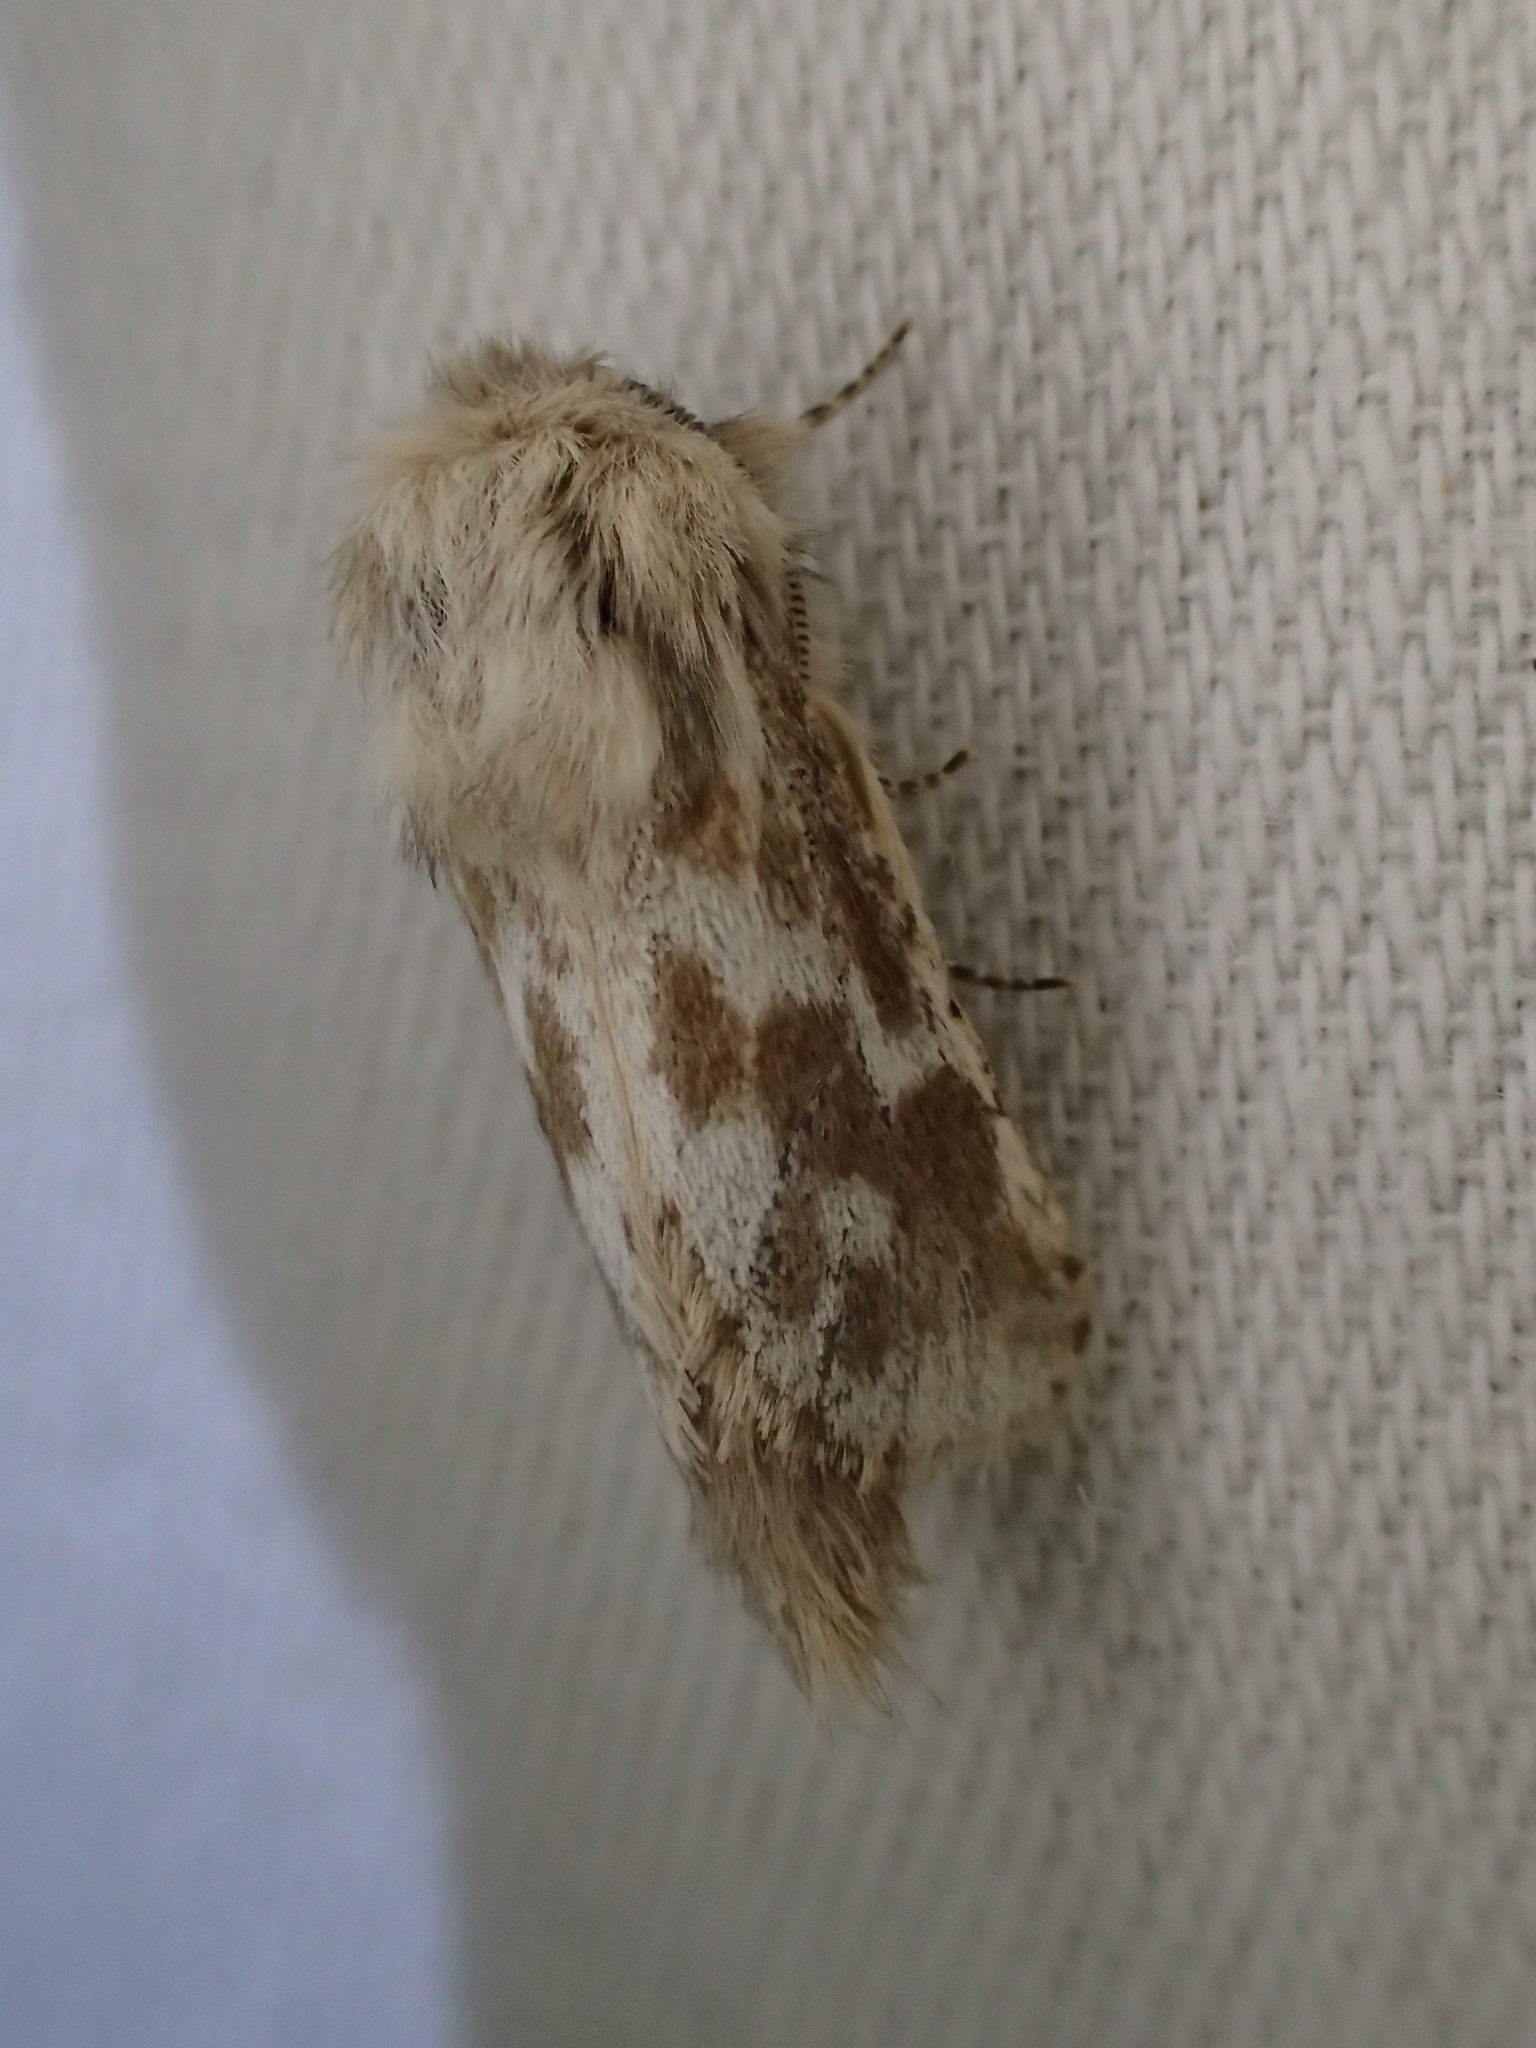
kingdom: Animalia
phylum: Arthropoda
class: Insecta
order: Lepidoptera
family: Cossidae
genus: Dyspessa
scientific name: Dyspessa ulula
